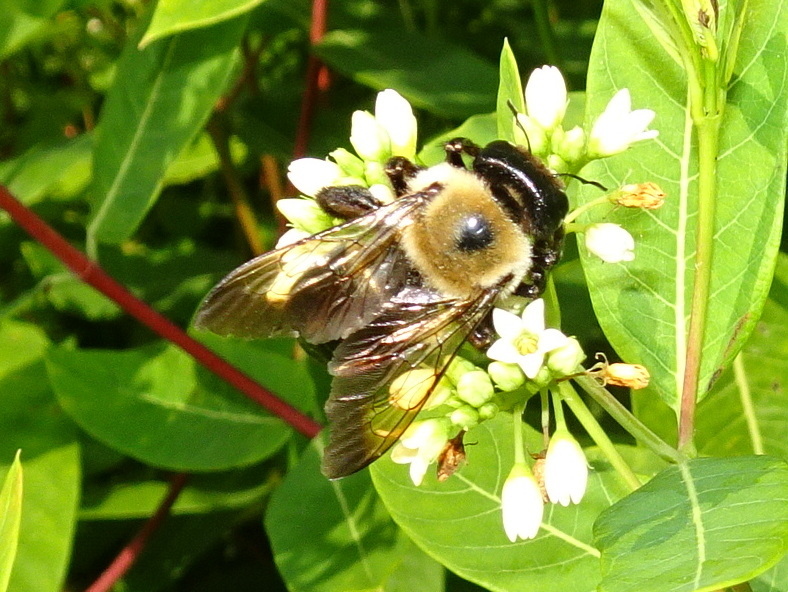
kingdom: Animalia
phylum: Arthropoda
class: Insecta
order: Hymenoptera
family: Apidae
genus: Xylocopa
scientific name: Xylocopa virginica
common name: Carpenter bee
